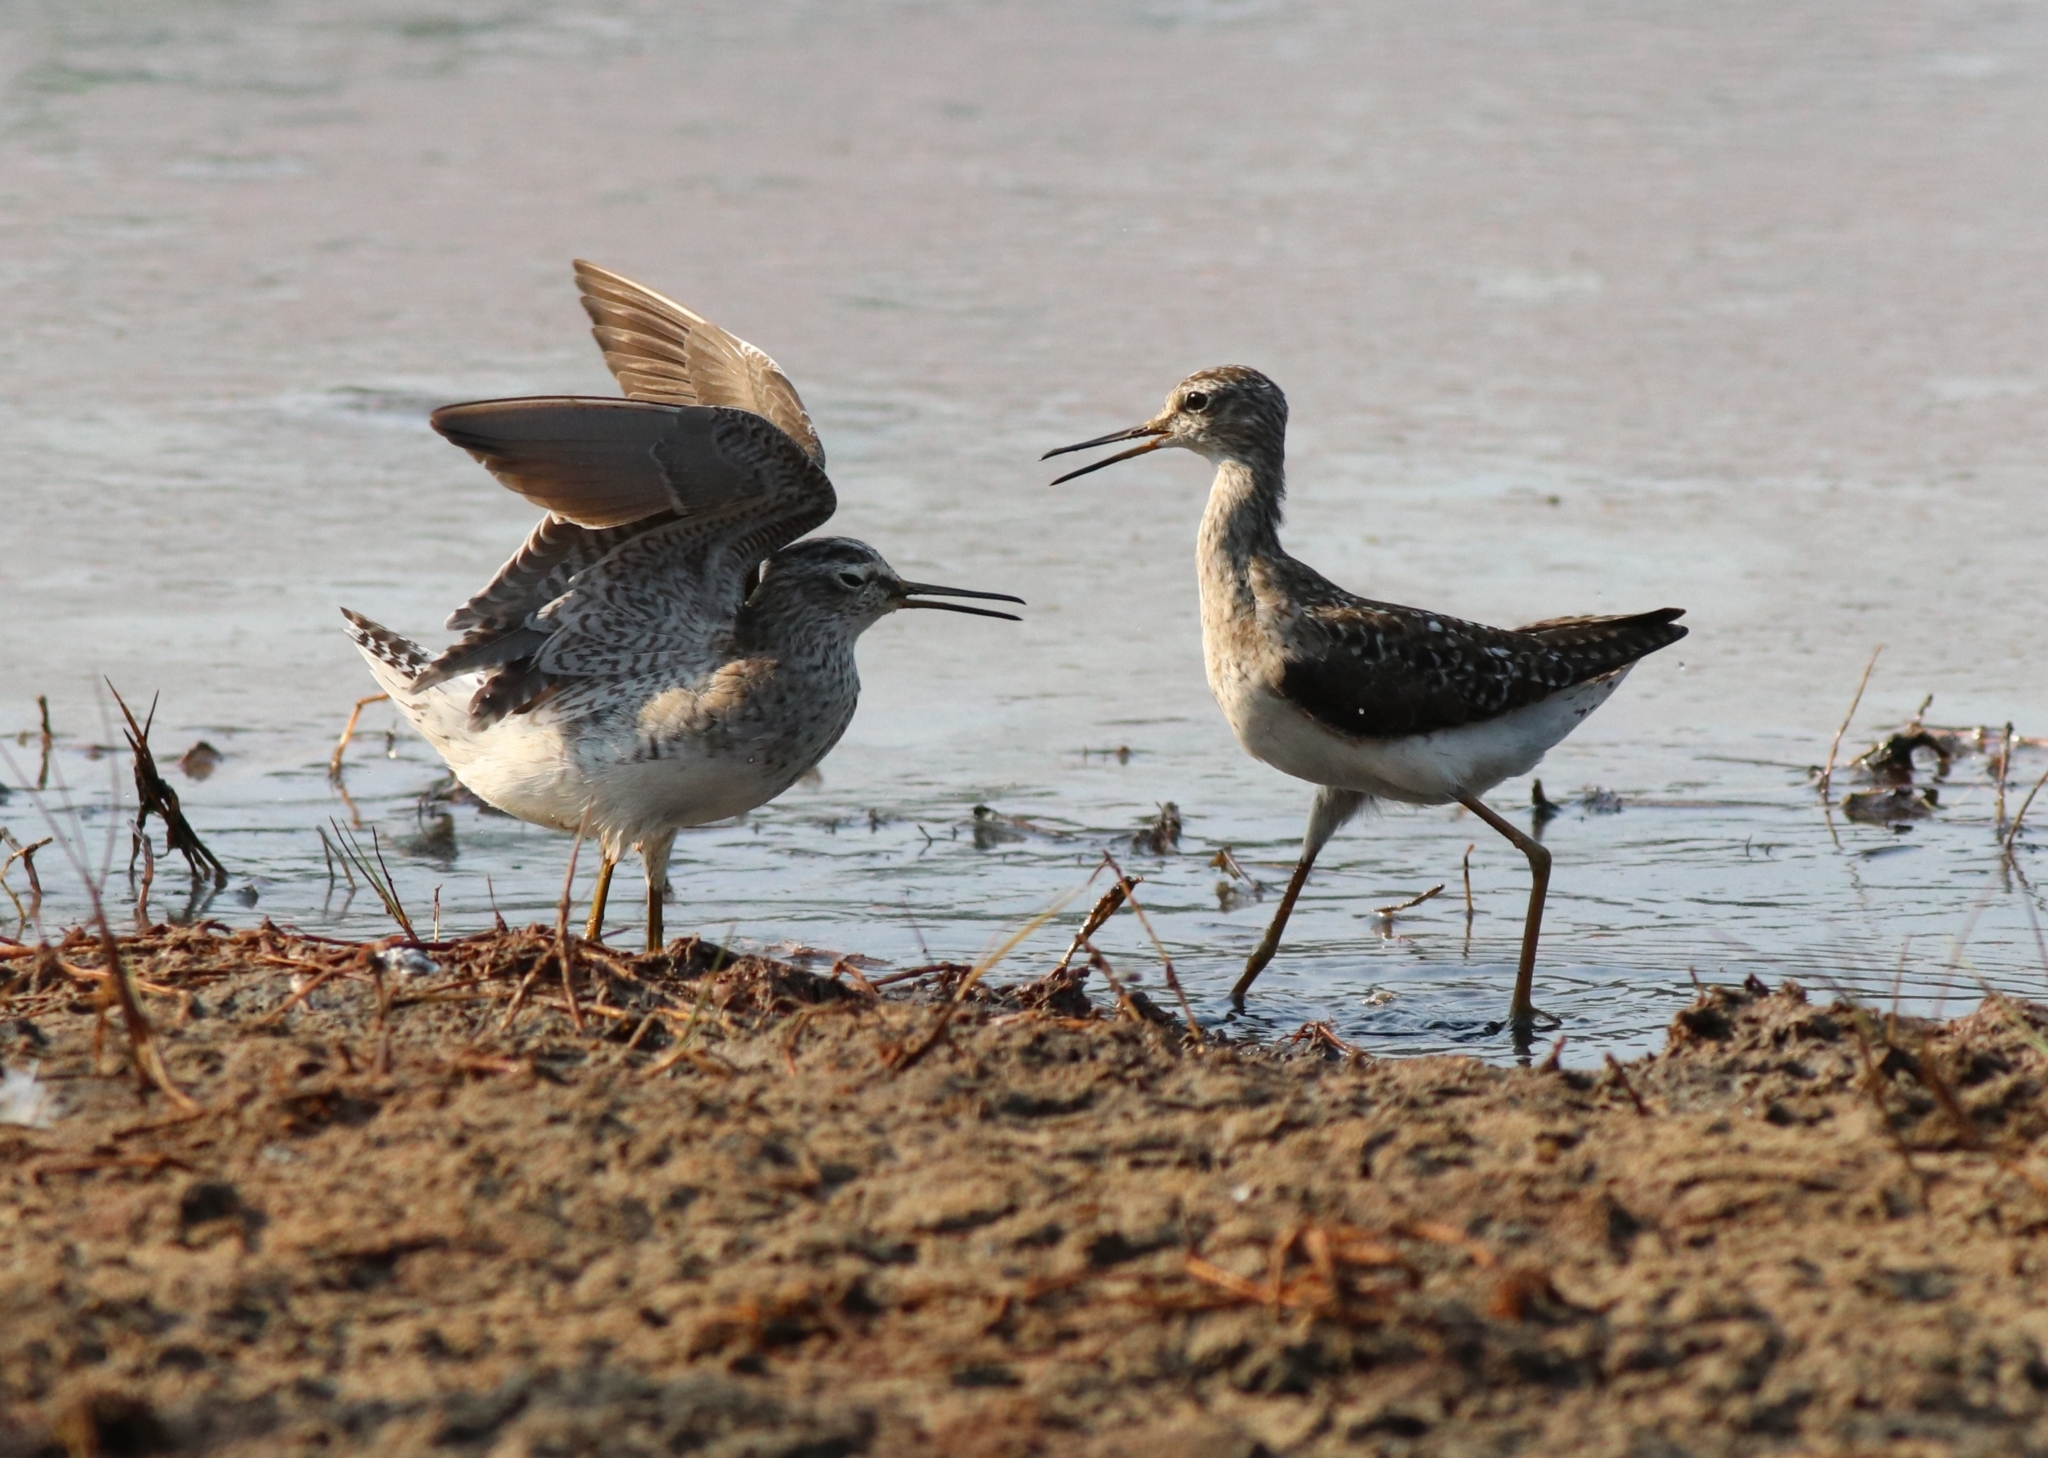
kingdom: Animalia
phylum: Chordata
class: Aves
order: Charadriiformes
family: Scolopacidae
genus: Tringa
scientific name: Tringa glareola
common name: Wood sandpiper
